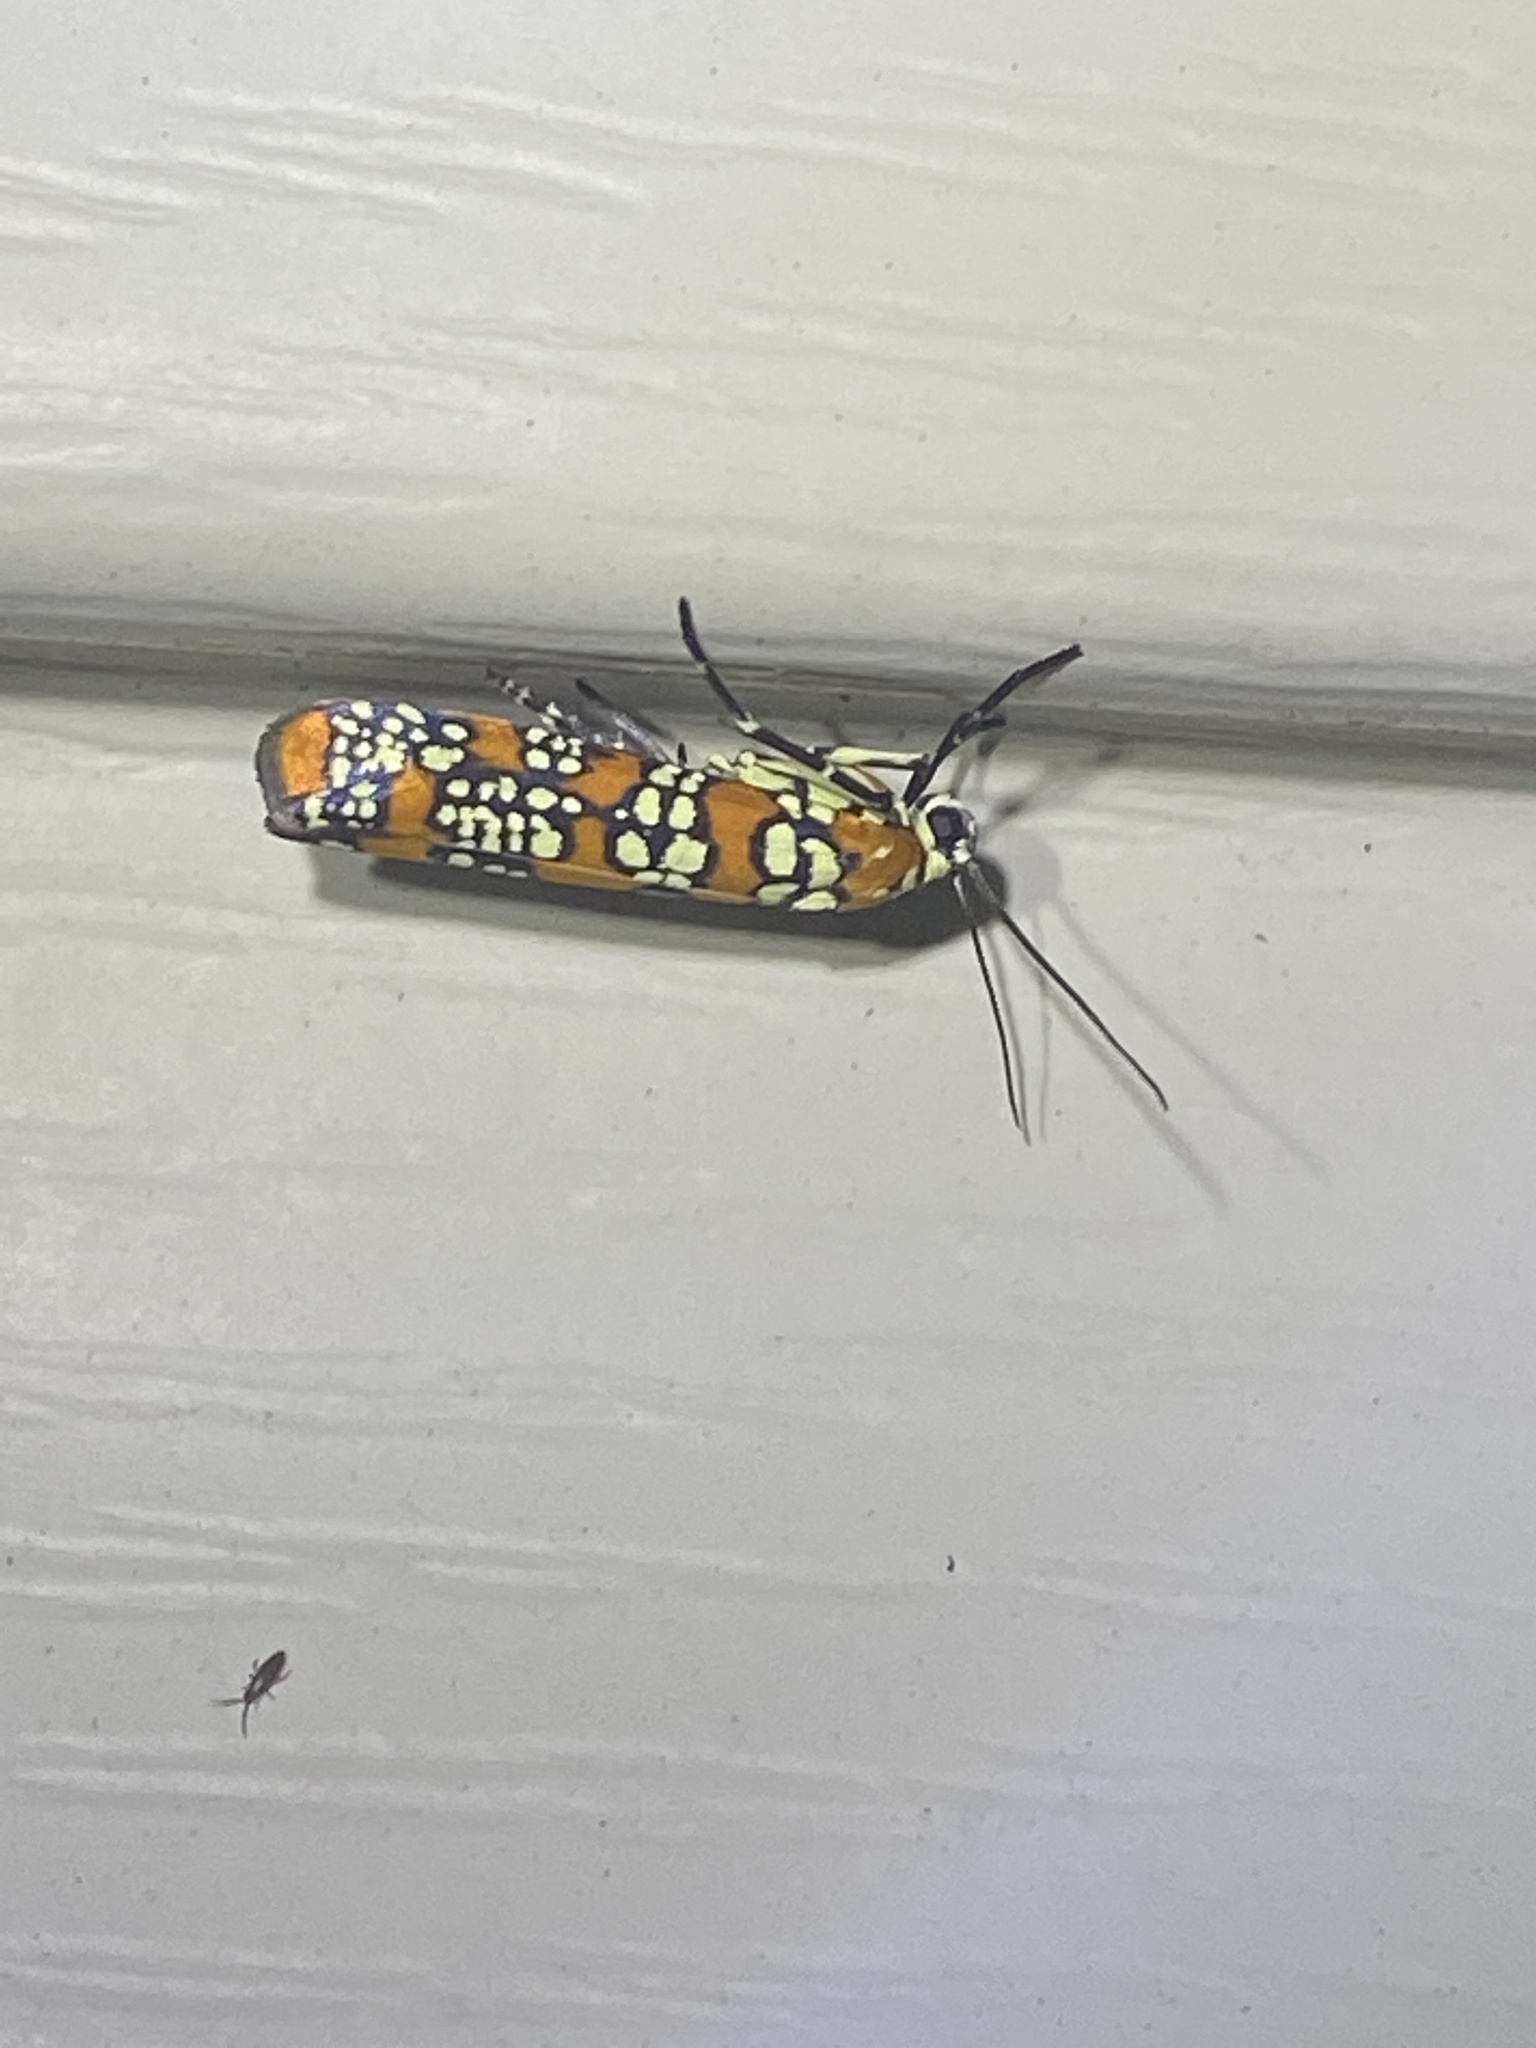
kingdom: Animalia
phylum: Arthropoda
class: Insecta
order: Lepidoptera
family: Attevidae
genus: Atteva
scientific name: Atteva punctella
